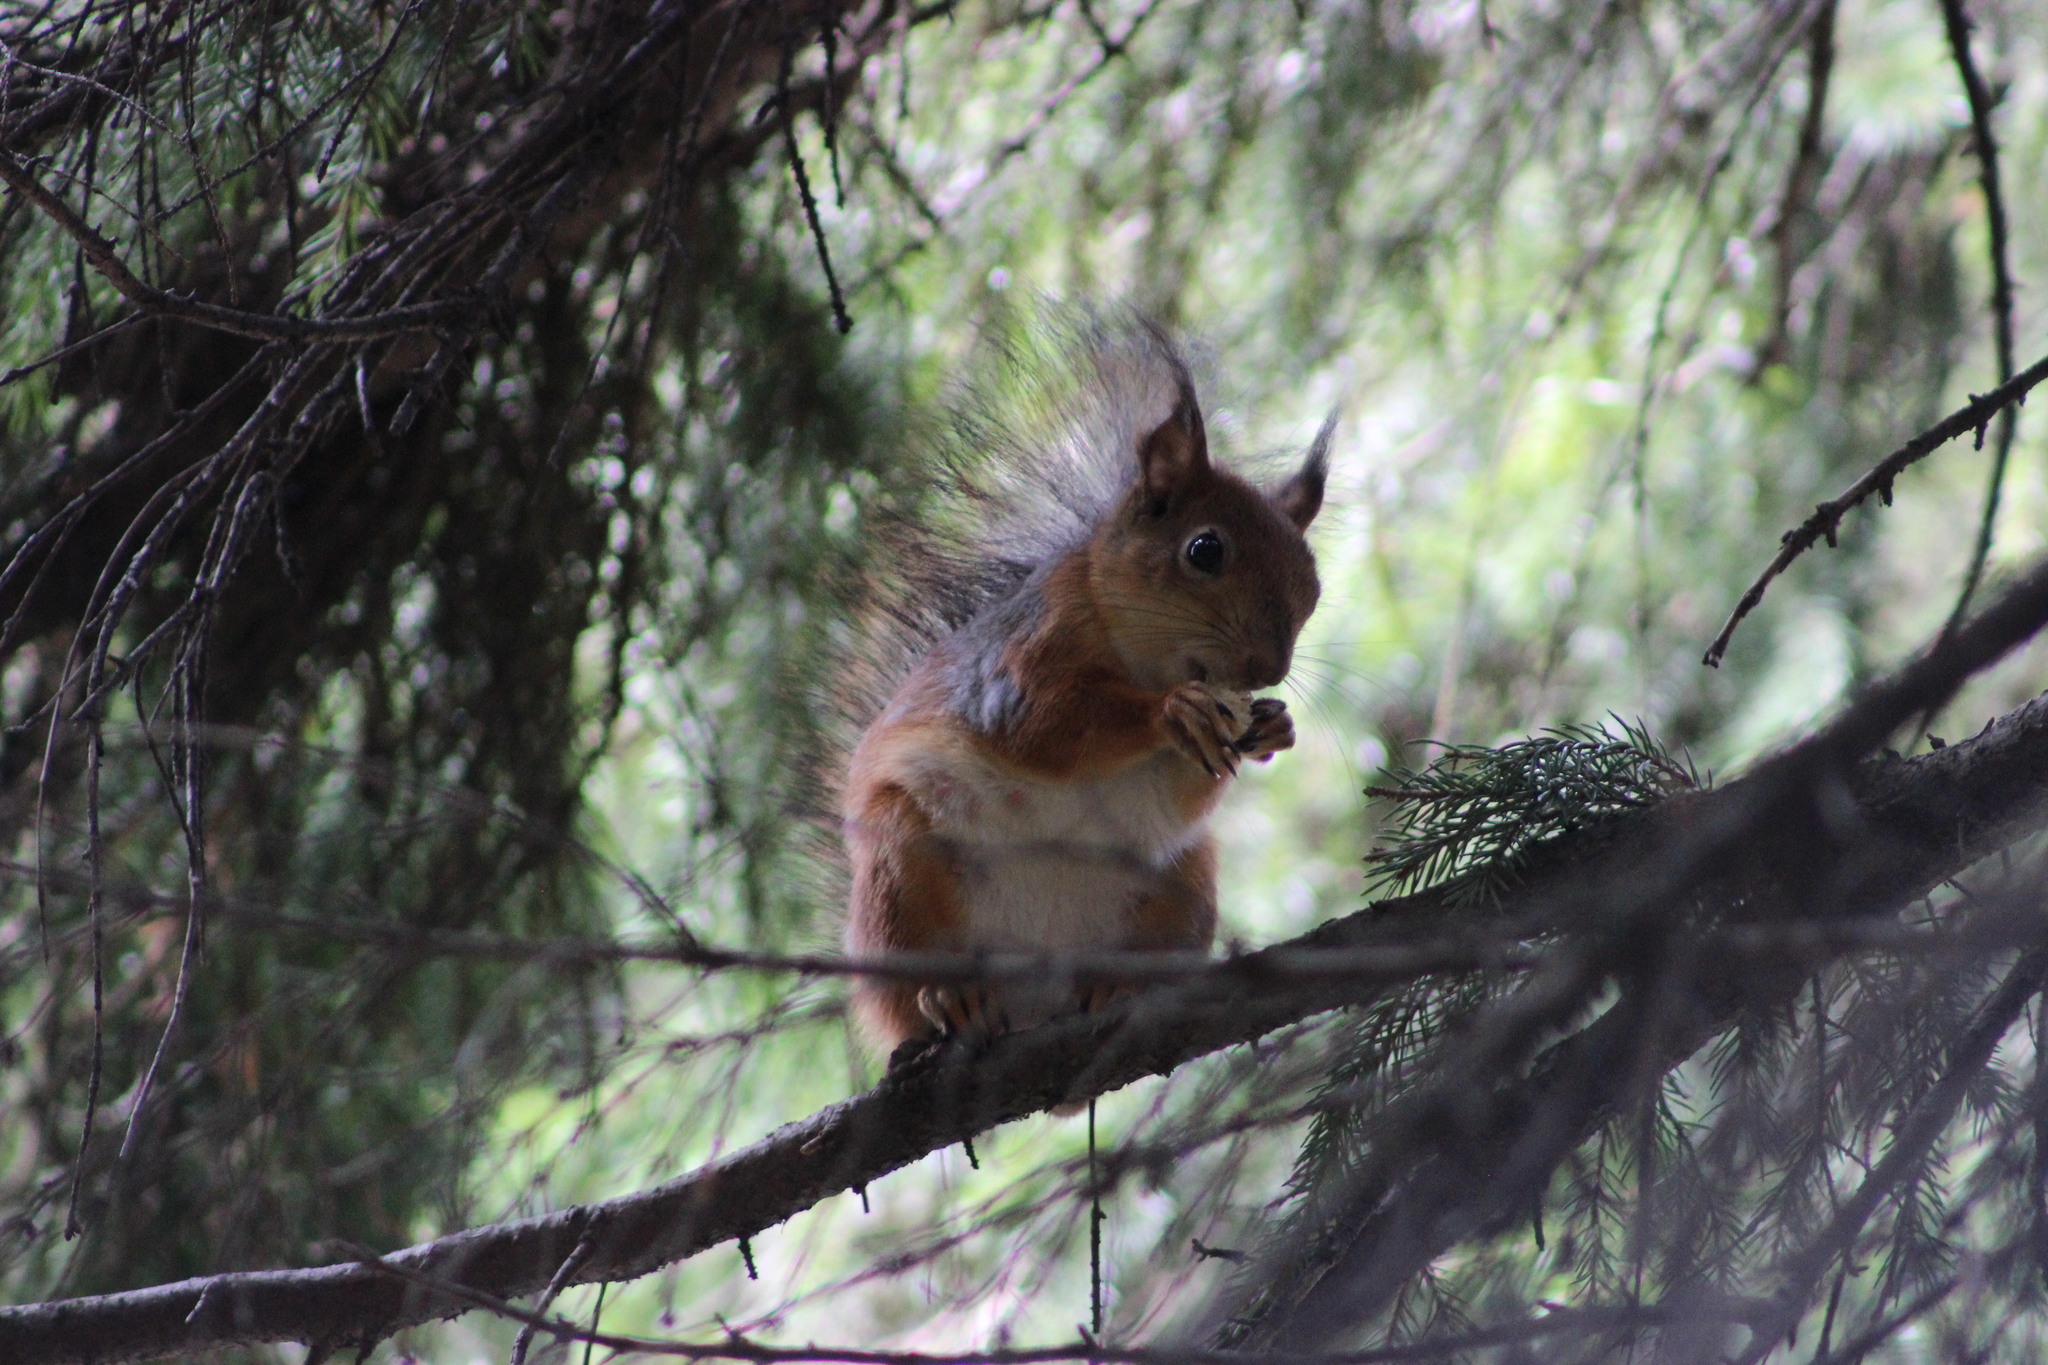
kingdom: Animalia
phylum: Chordata
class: Mammalia
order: Rodentia
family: Sciuridae
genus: Sciurus
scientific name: Sciurus vulgaris
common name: Eurasian red squirrel
